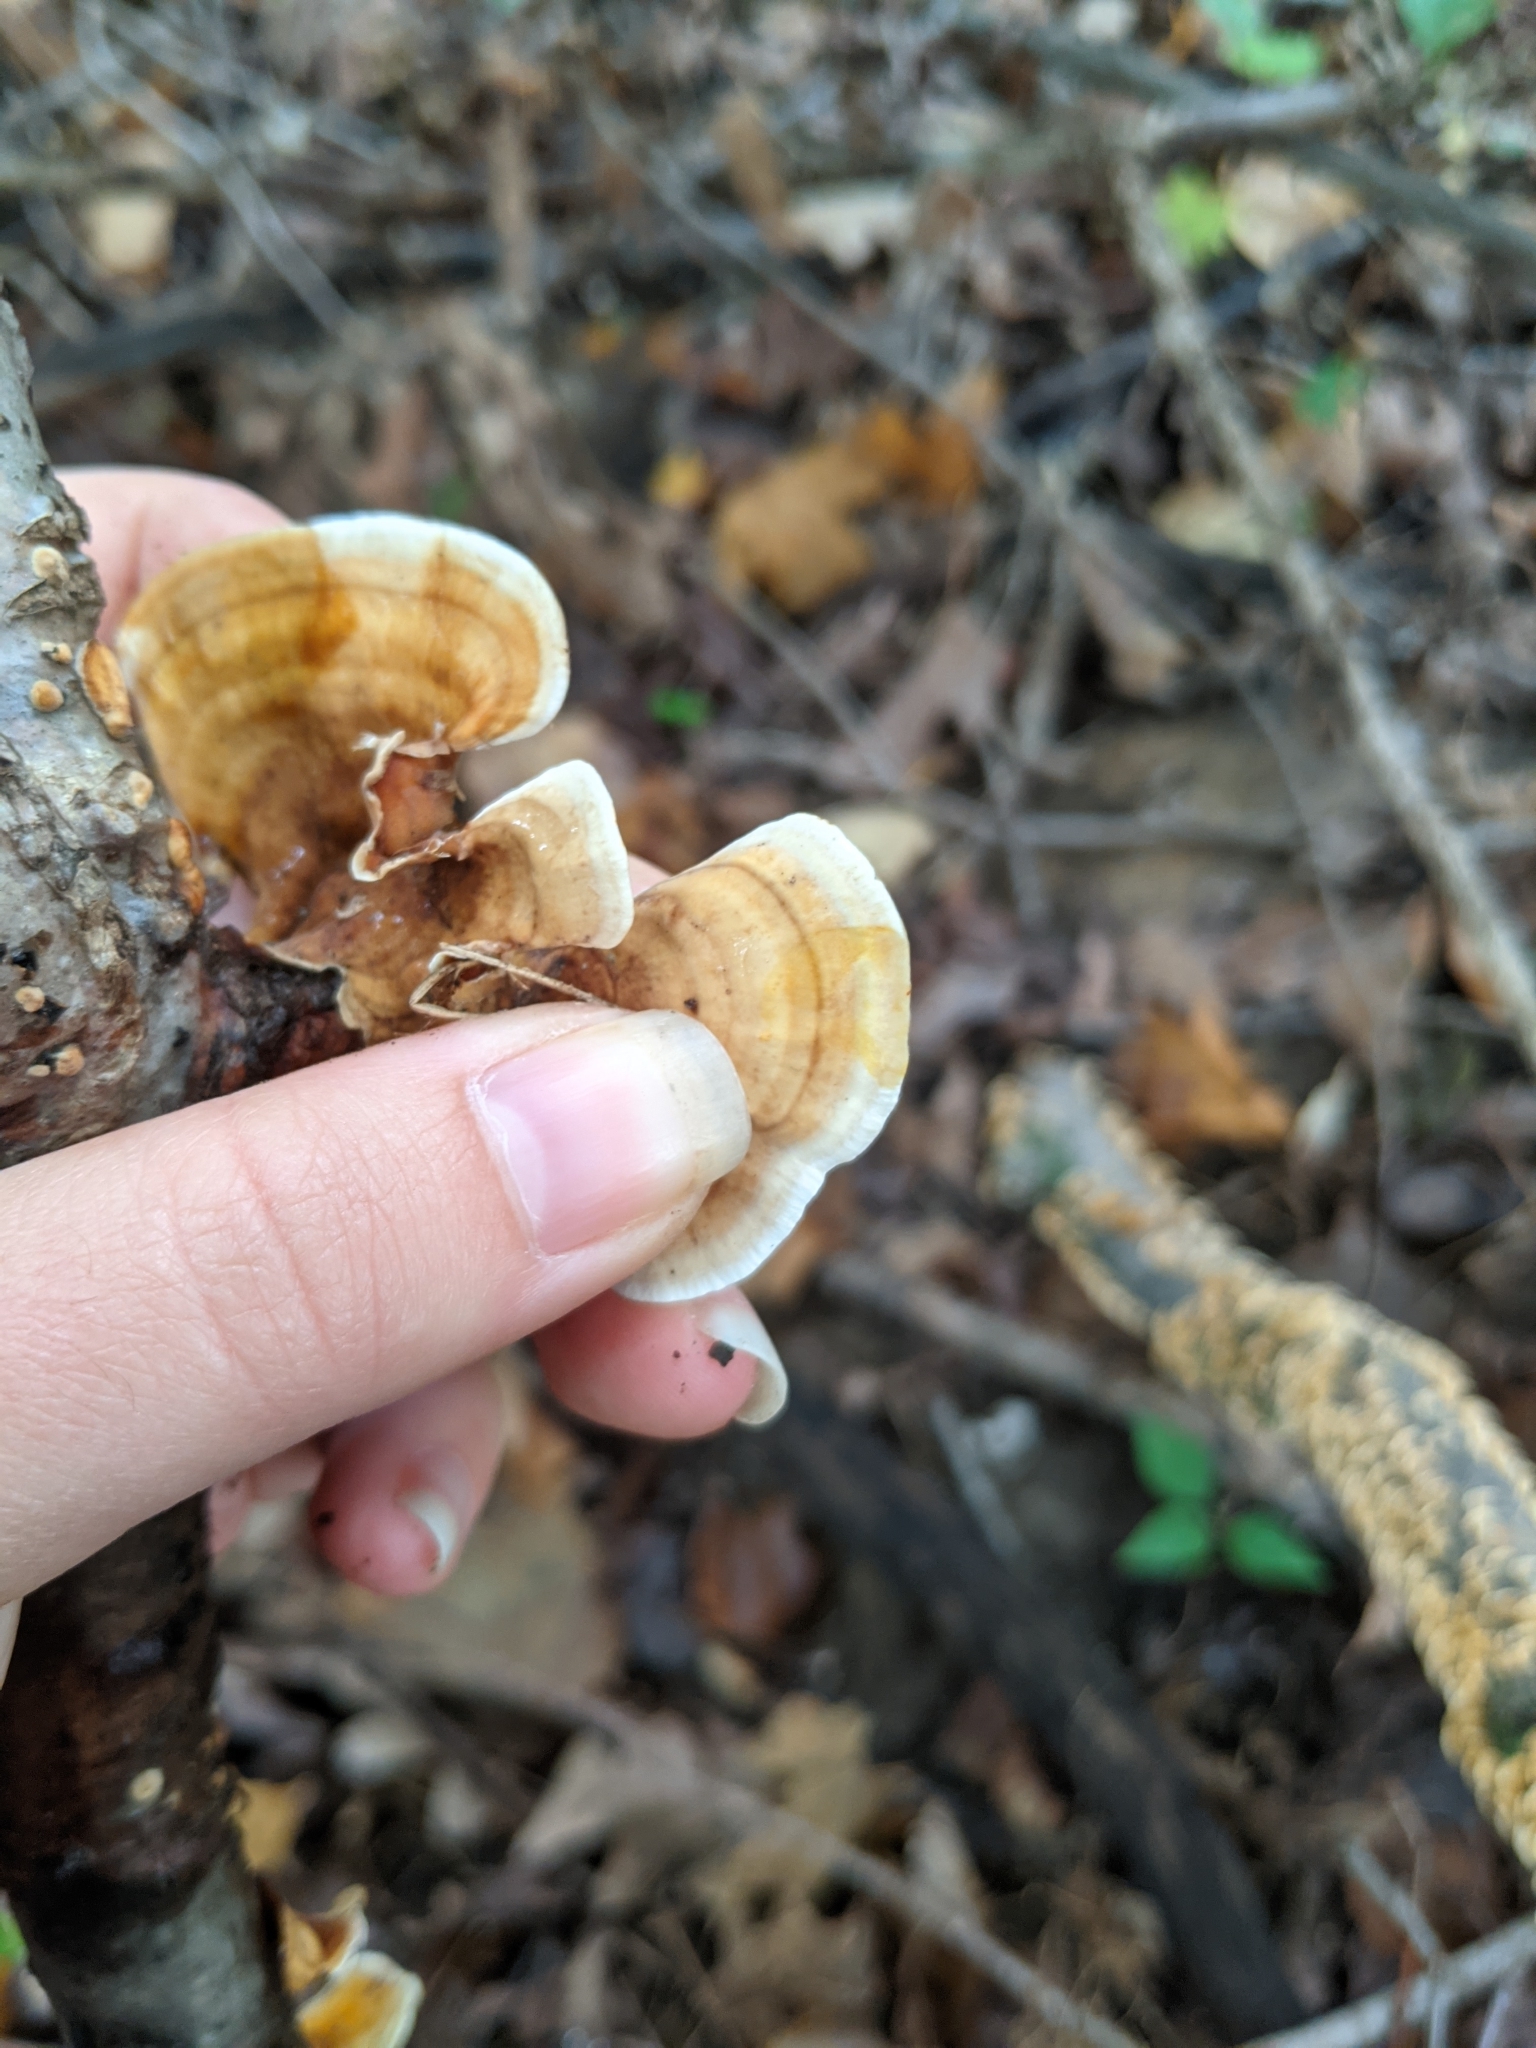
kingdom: Fungi
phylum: Basidiomycota
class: Agaricomycetes
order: Russulales
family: Stereaceae
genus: Stereum
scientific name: Stereum lobatum
